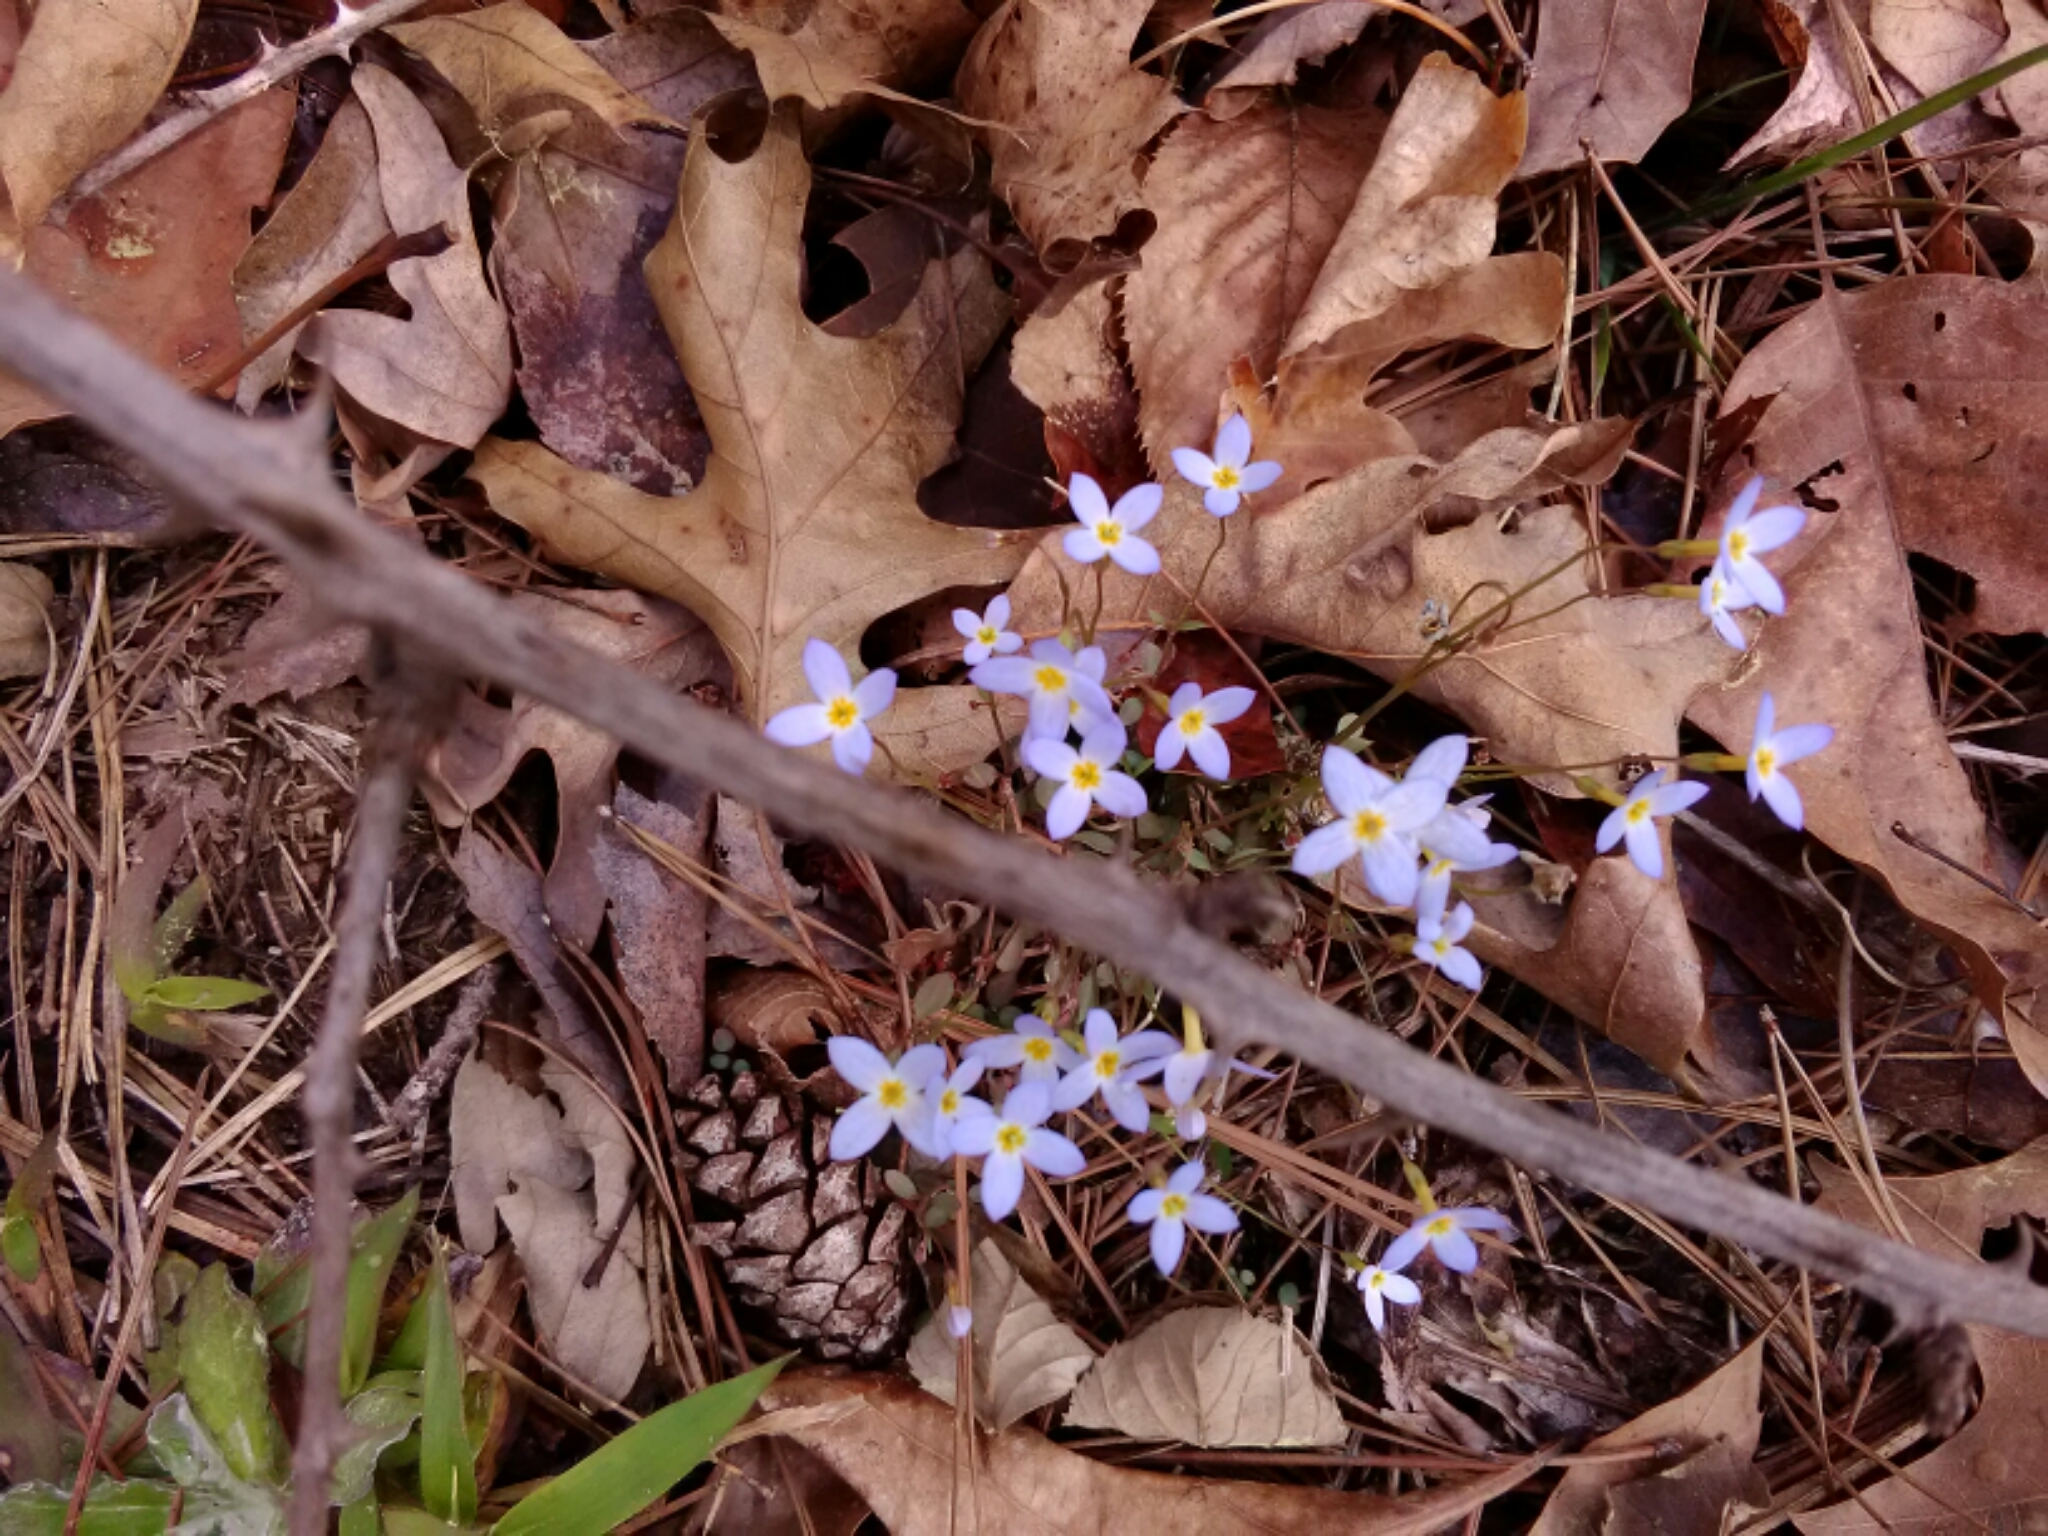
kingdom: Plantae
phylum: Tracheophyta
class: Magnoliopsida
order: Gentianales
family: Rubiaceae
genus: Houstonia
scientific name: Houstonia caerulea
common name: Bluets
